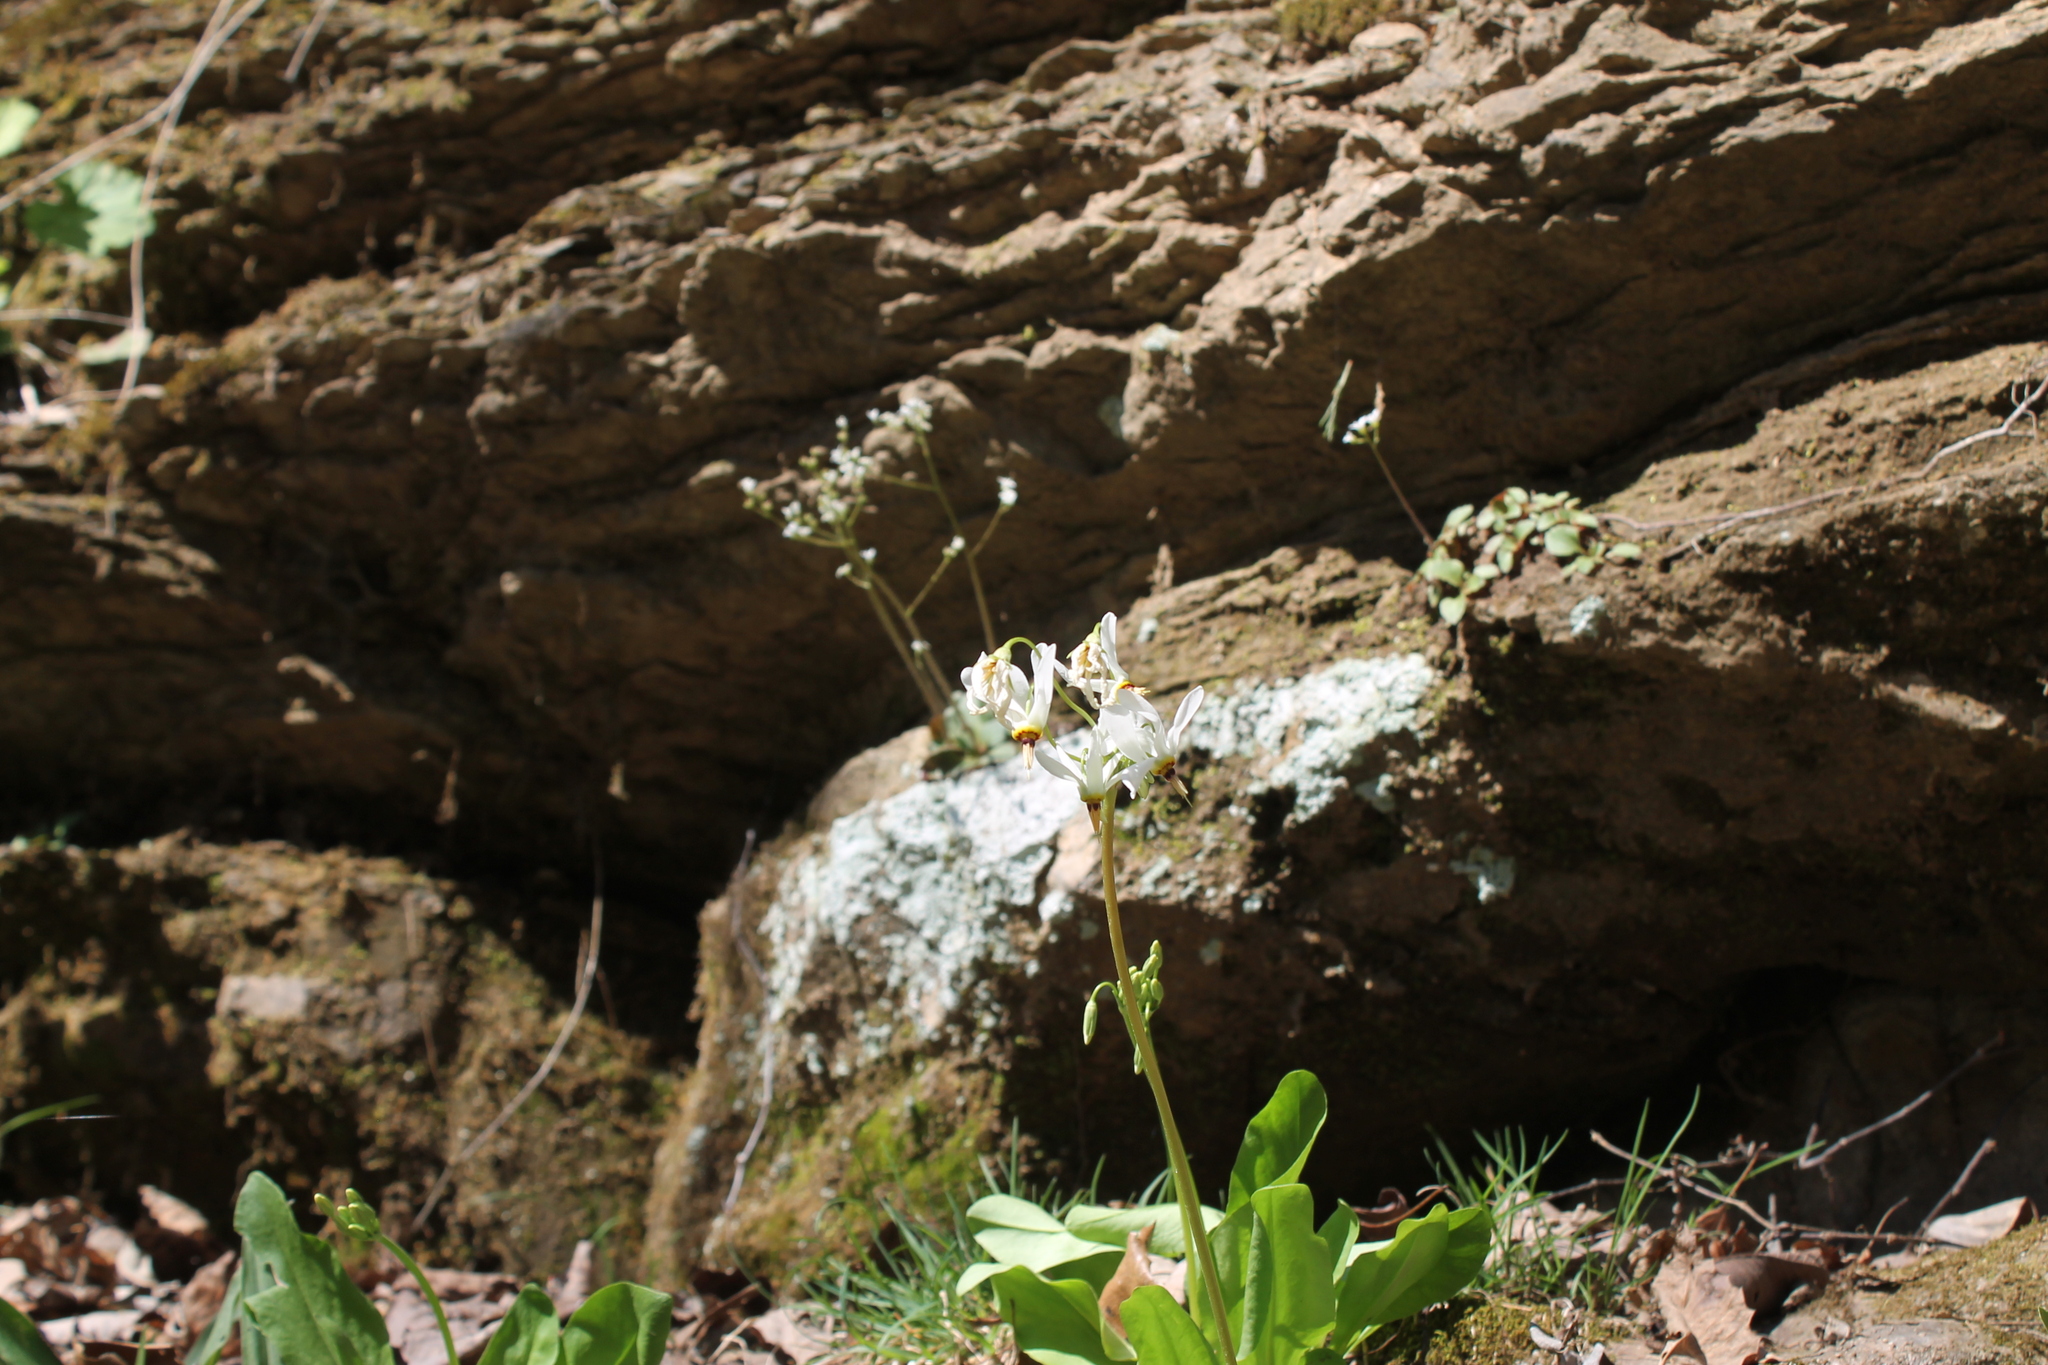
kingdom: Plantae
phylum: Tracheophyta
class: Magnoliopsida
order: Ericales
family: Primulaceae
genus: Dodecatheon
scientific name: Dodecatheon meadia
